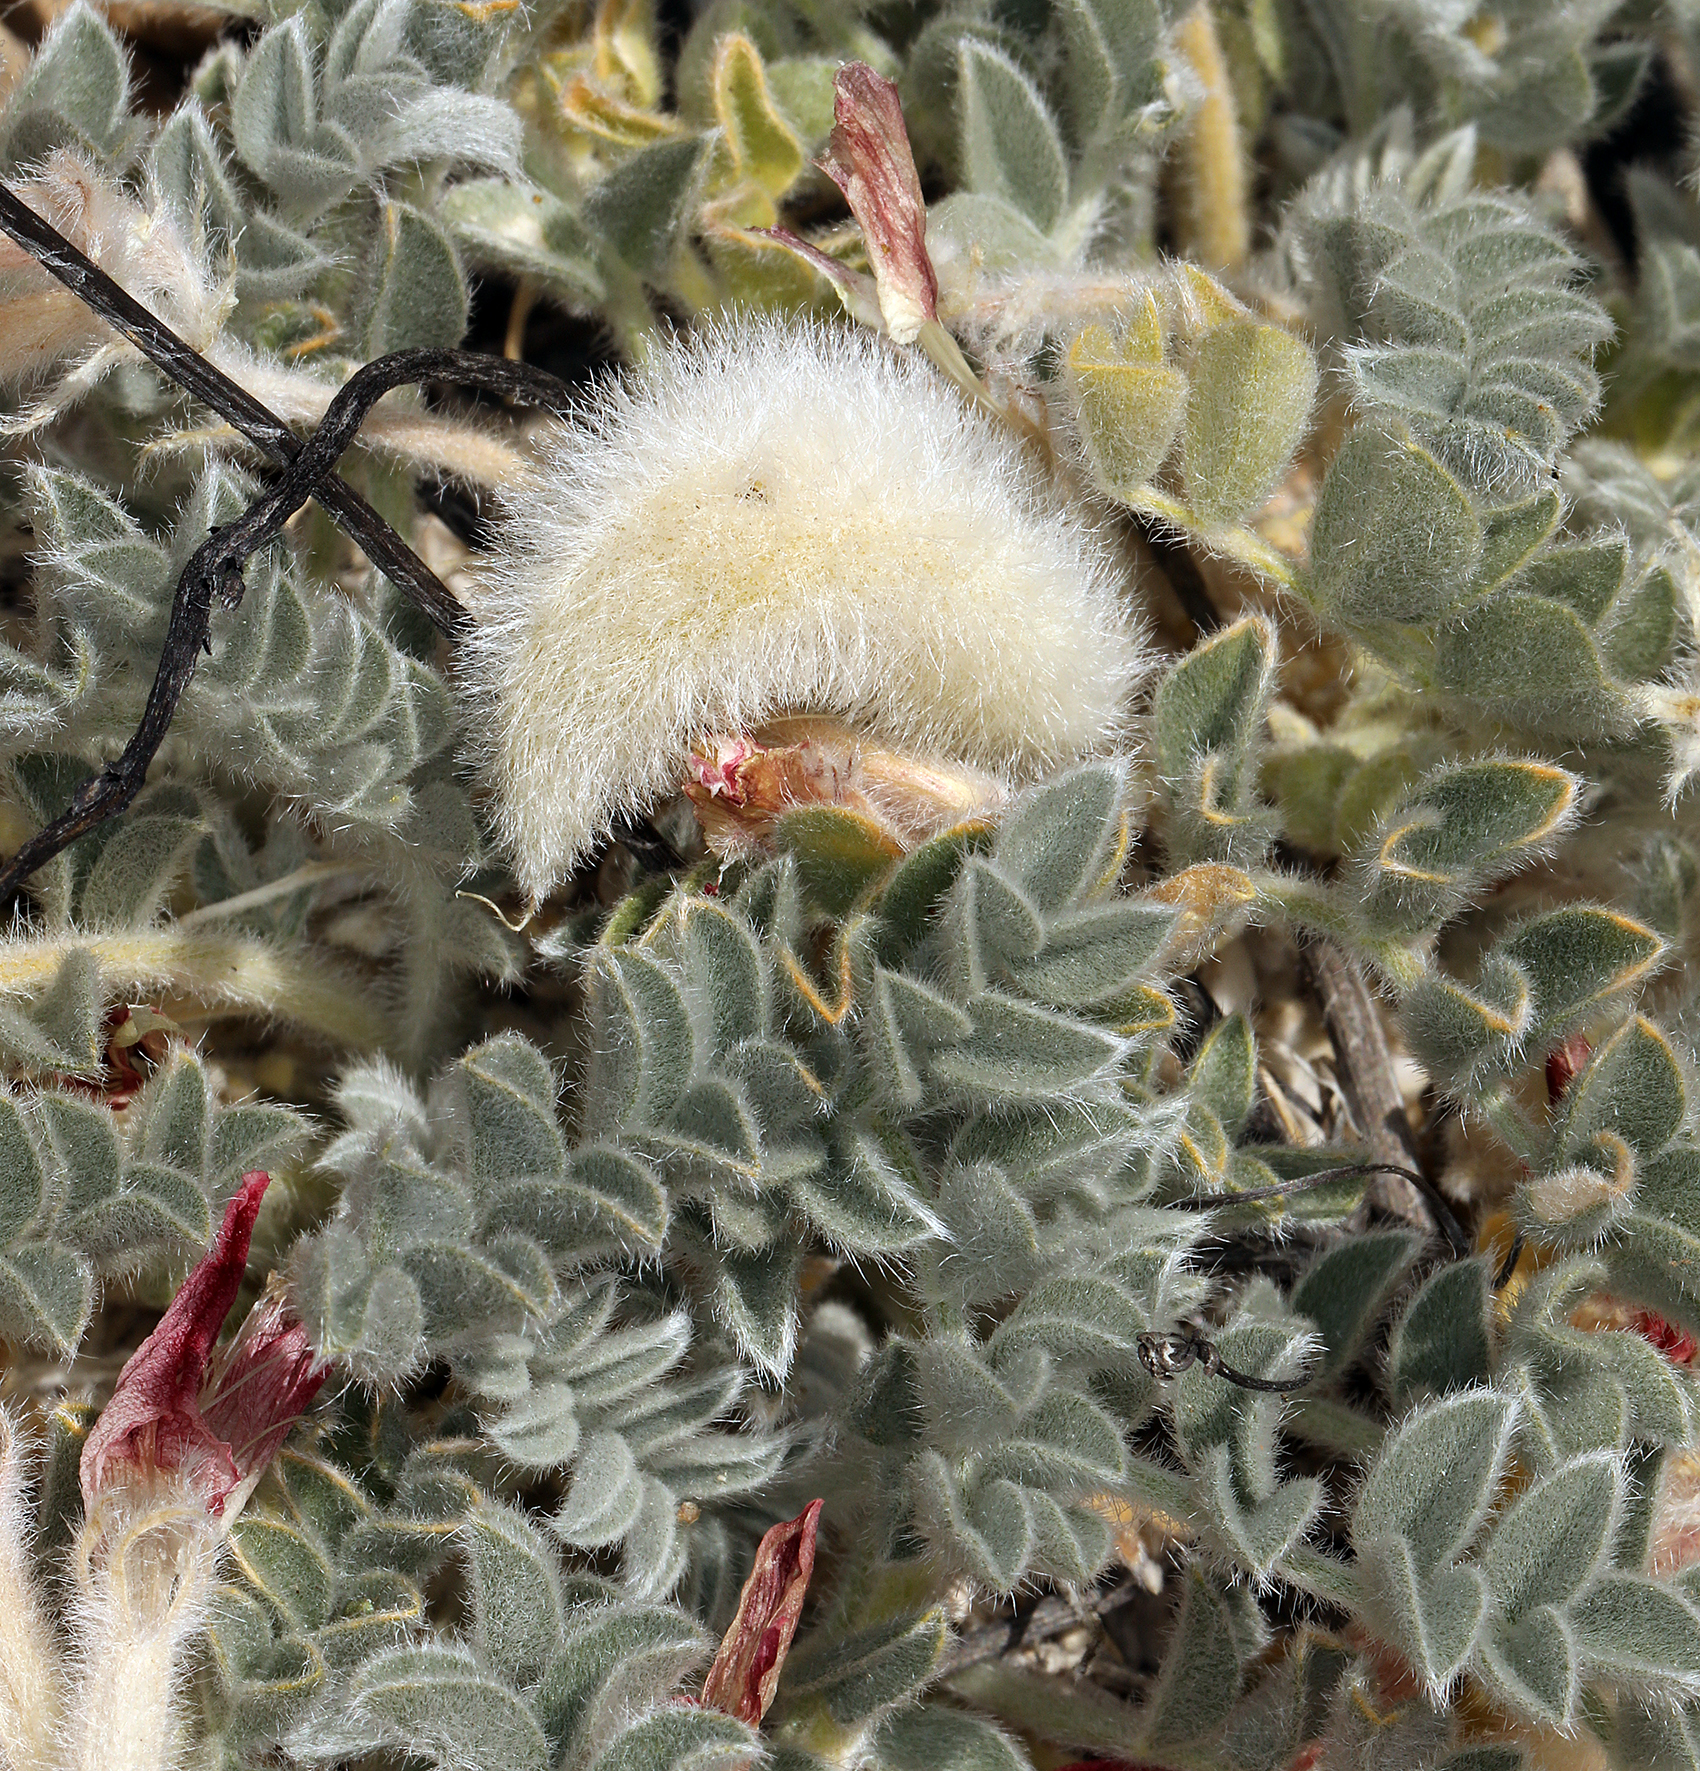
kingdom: Plantae
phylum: Tracheophyta
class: Magnoliopsida
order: Fabales
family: Fabaceae
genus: Astragalus
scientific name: Astragalus coccineus
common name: Scarlet milk-vetch
